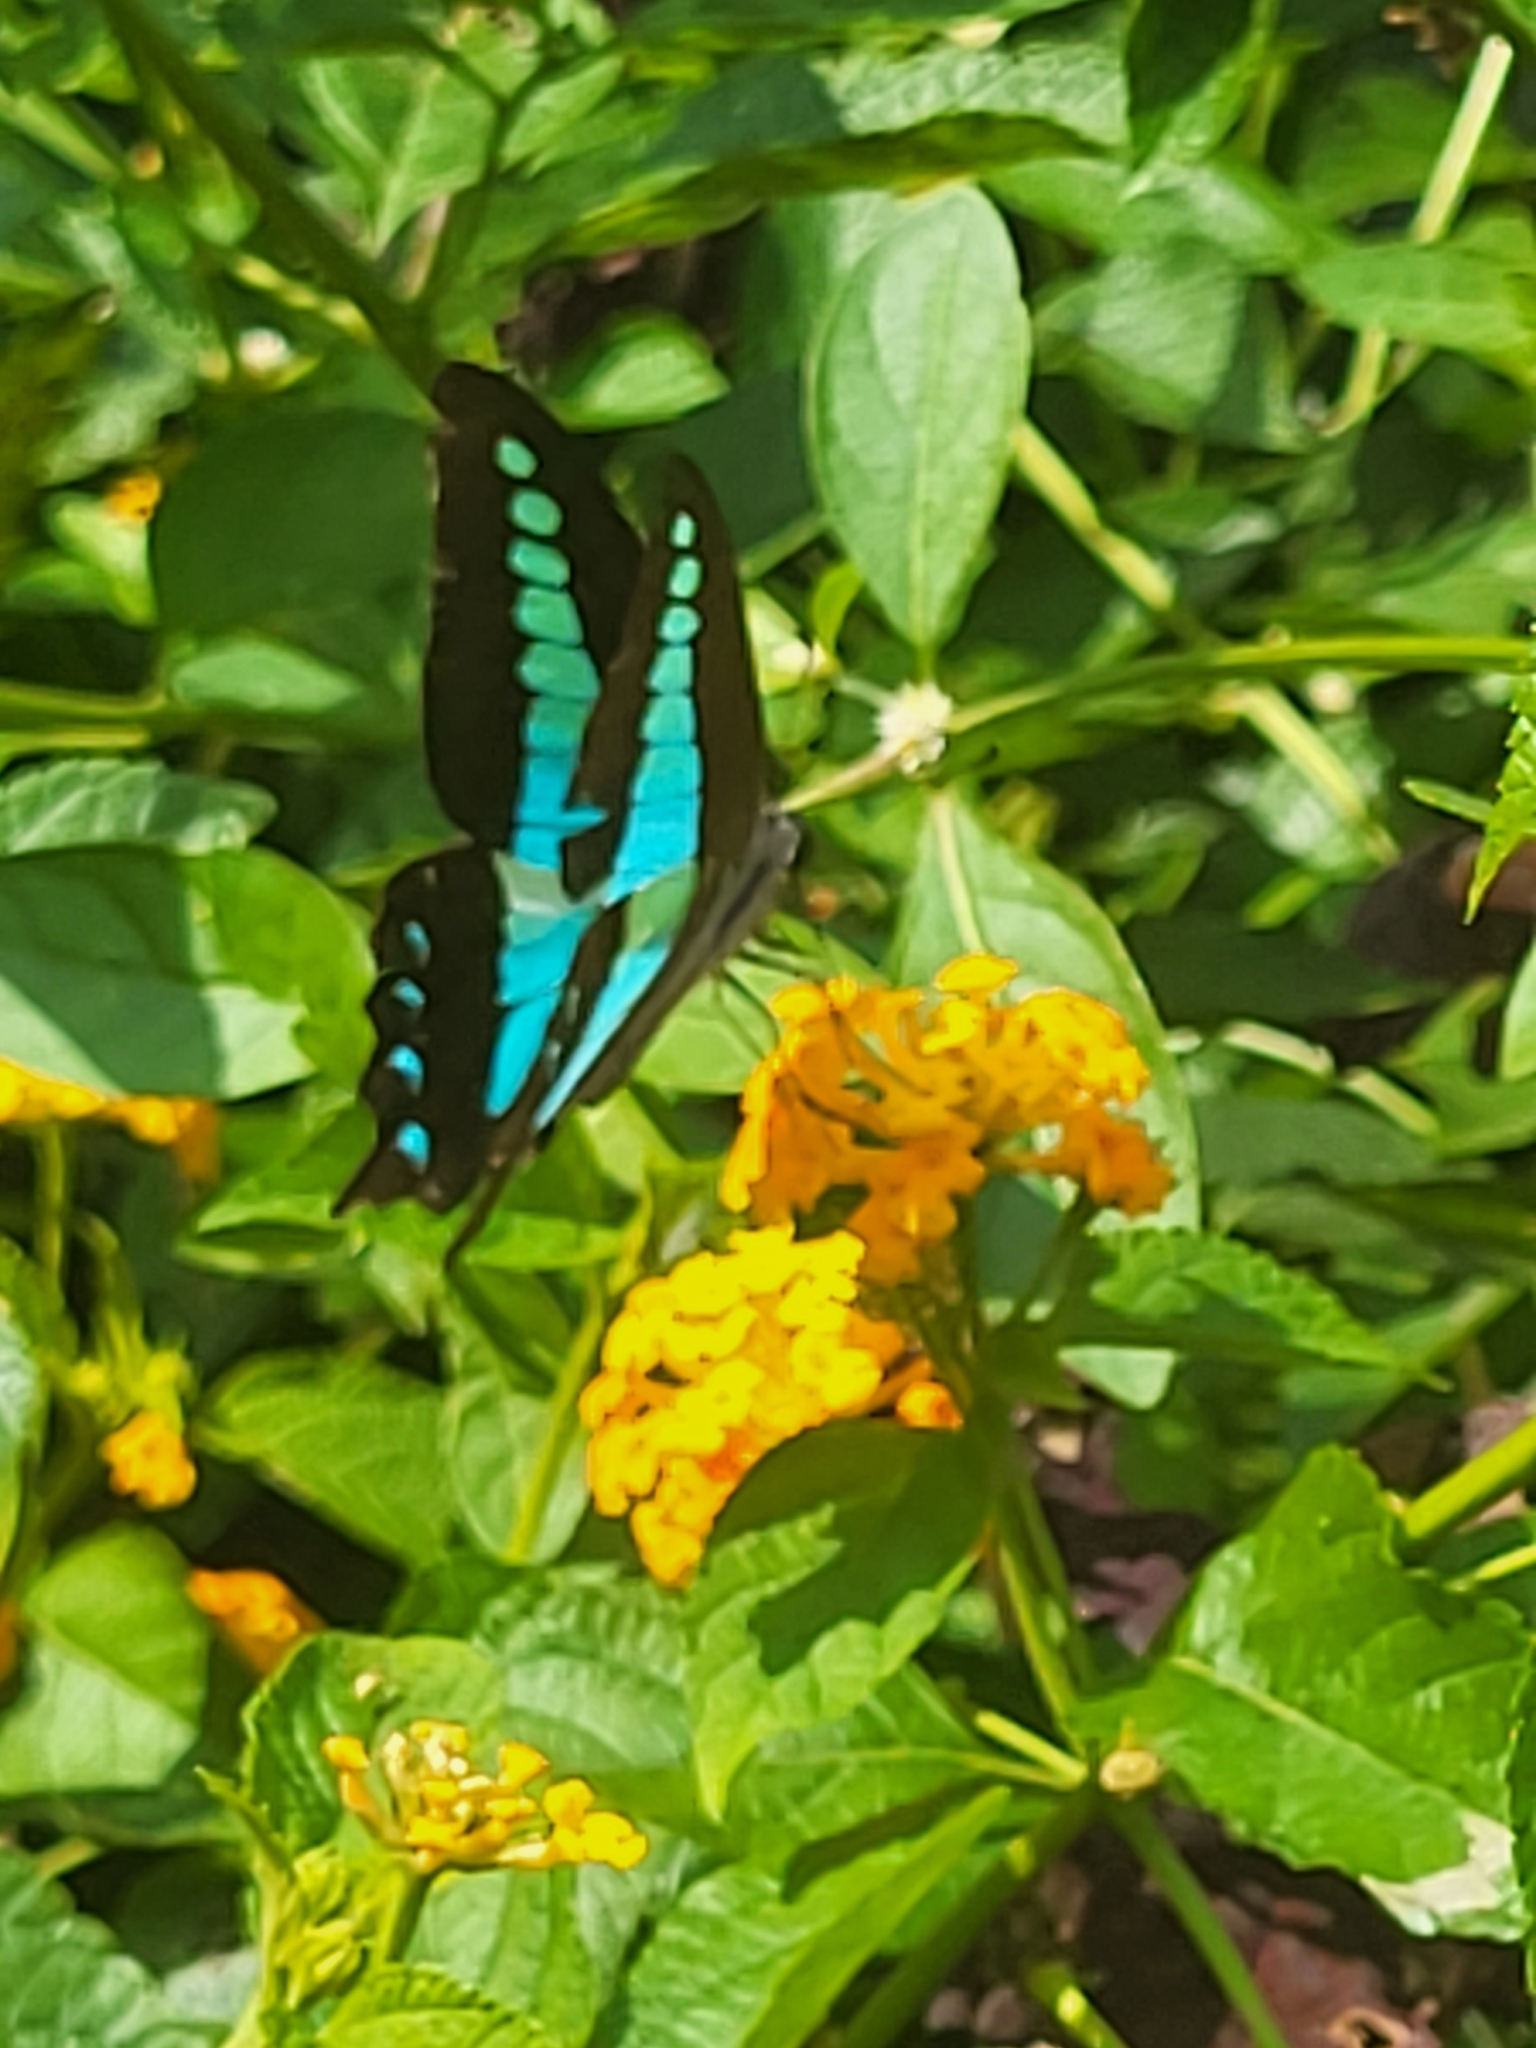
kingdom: Animalia
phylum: Arthropoda
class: Insecta
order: Lepidoptera
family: Papilionidae
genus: Graphium
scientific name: Graphium
